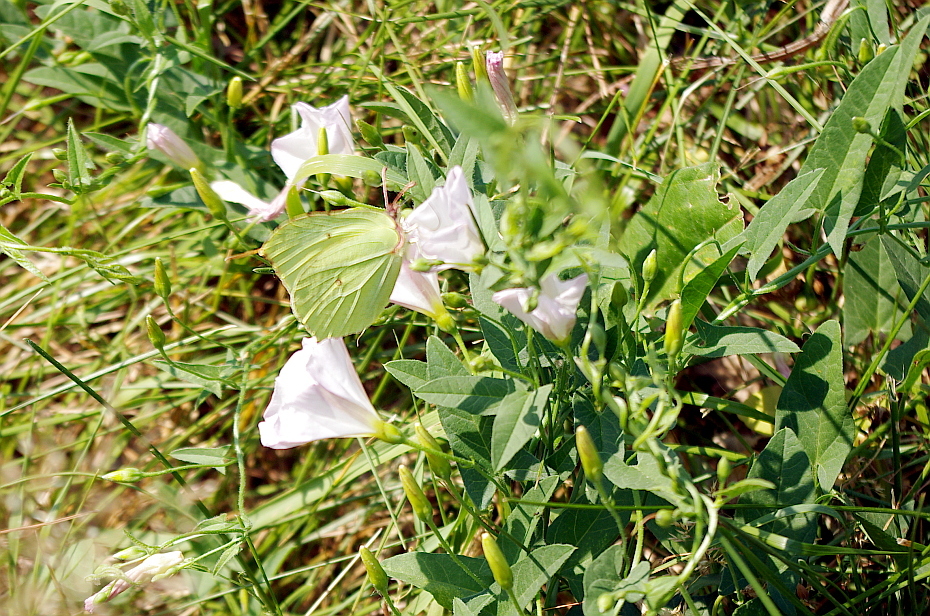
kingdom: Animalia
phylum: Arthropoda
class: Insecta
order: Lepidoptera
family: Pieridae
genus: Gonepteryx
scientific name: Gonepteryx rhamni
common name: Brimstone
